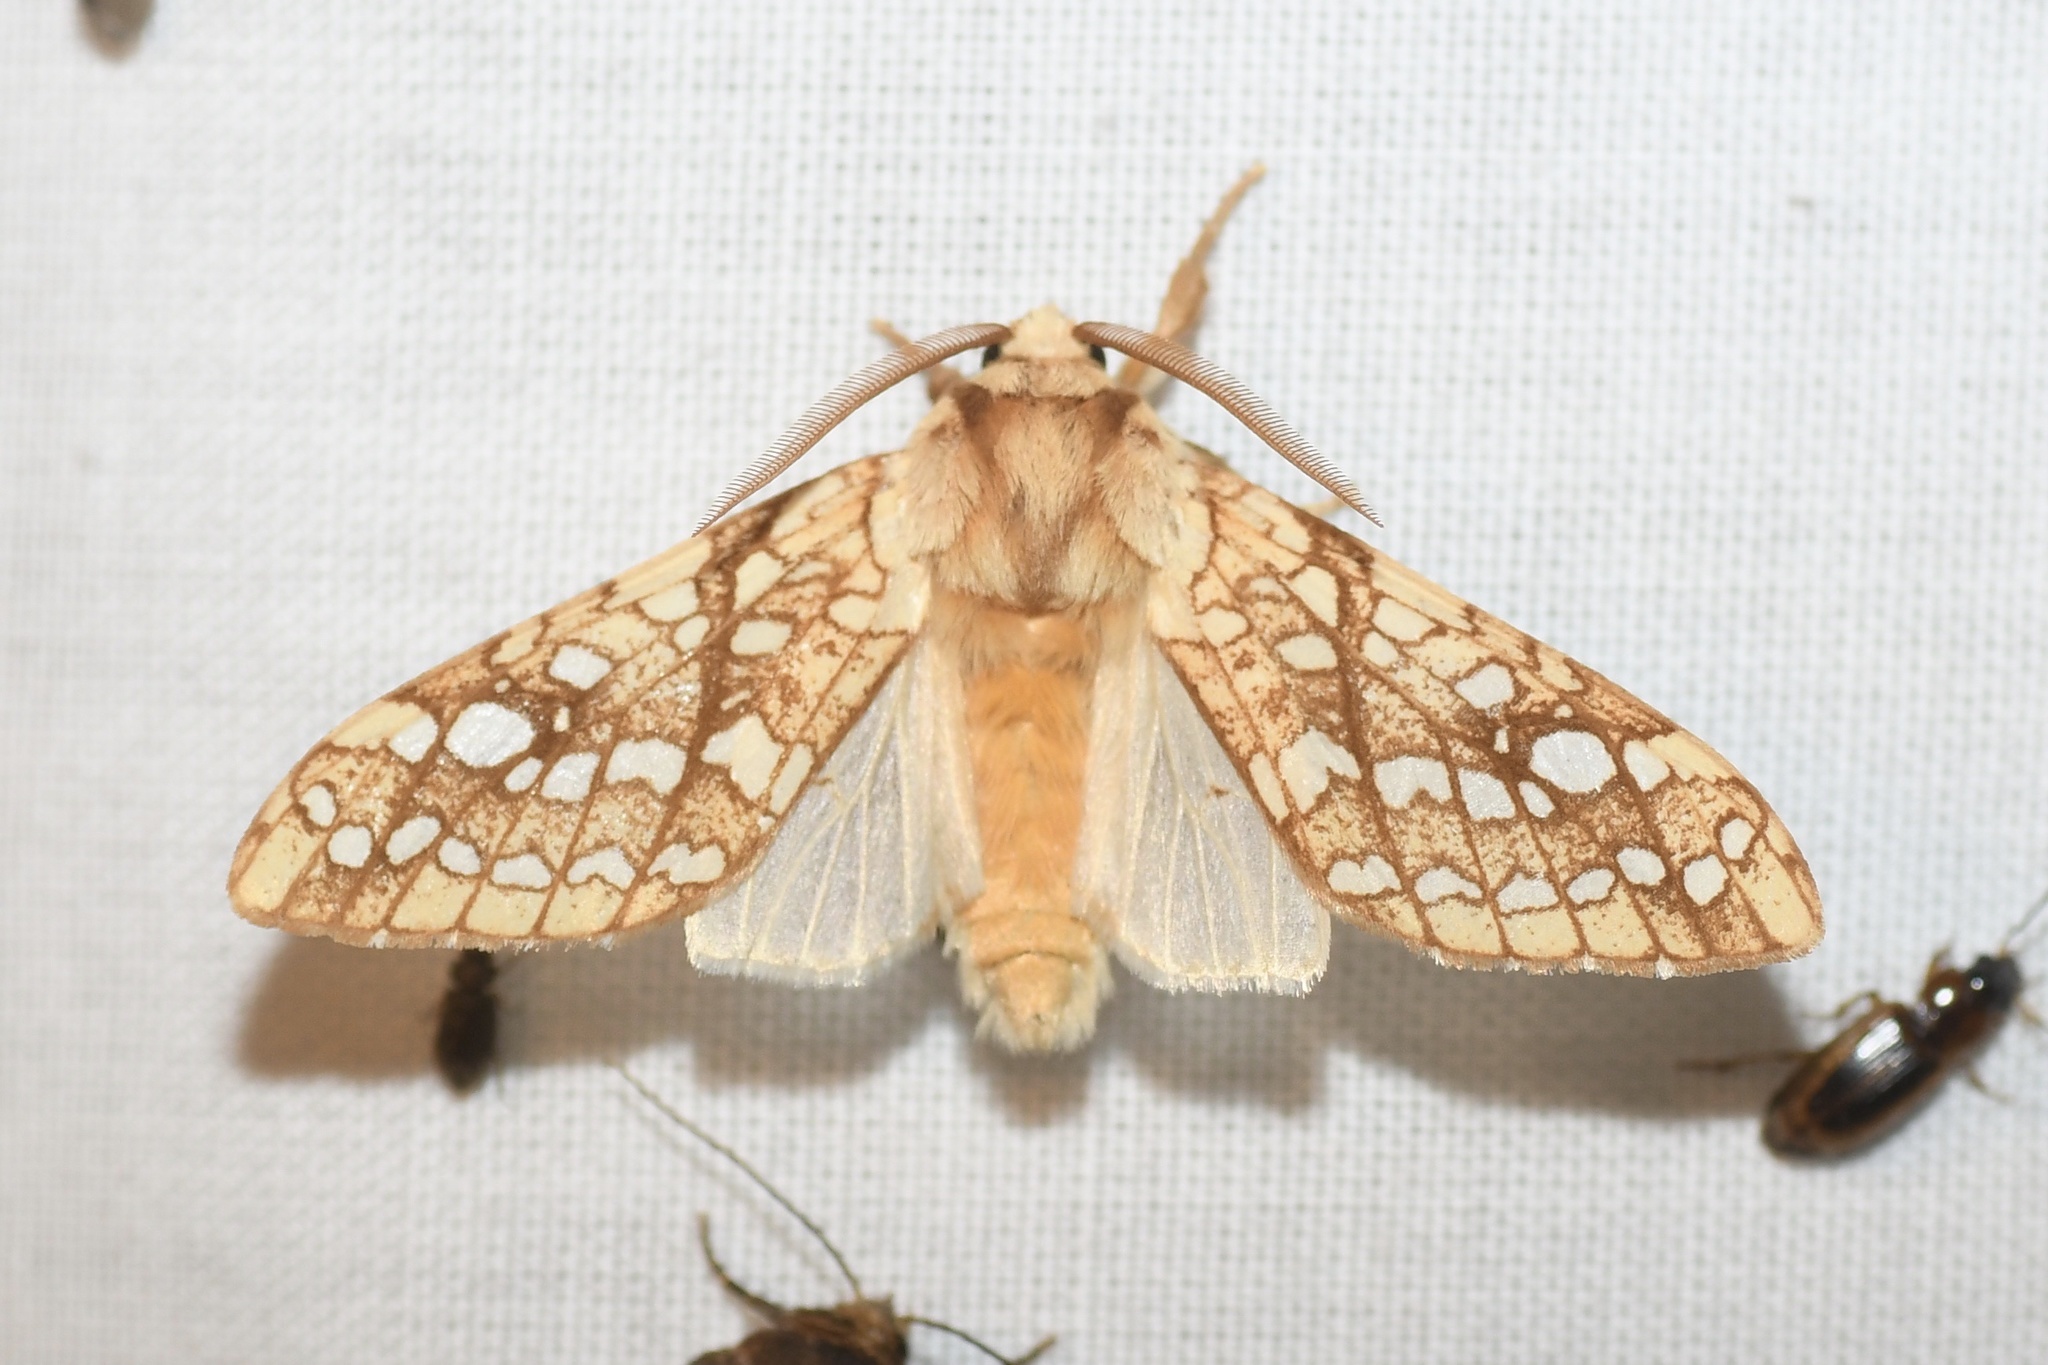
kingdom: Animalia
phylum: Arthropoda
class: Insecta
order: Lepidoptera
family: Erebidae
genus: Lophocampa
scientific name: Lophocampa caryae
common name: Hickory tussock moth
